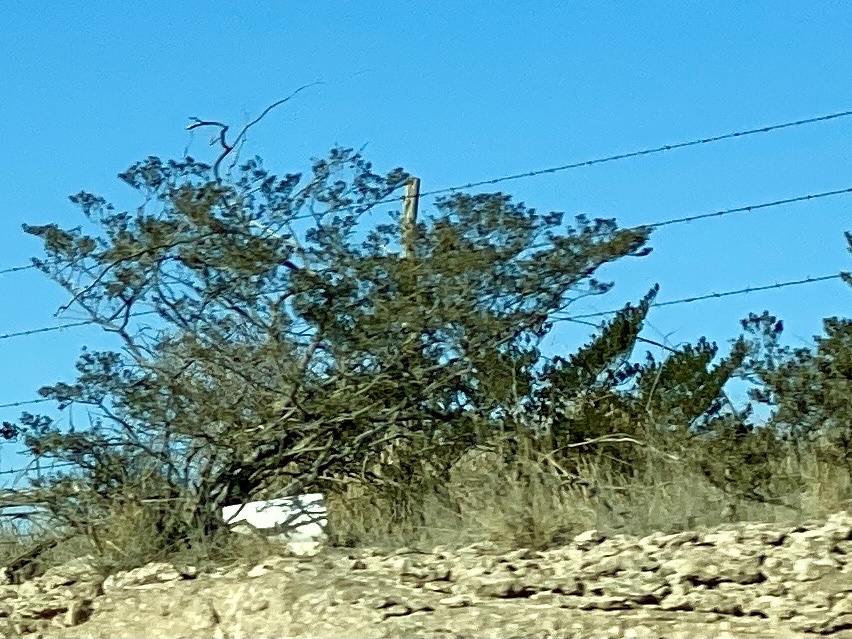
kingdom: Plantae
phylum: Tracheophyta
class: Magnoliopsida
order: Zygophyllales
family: Zygophyllaceae
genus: Larrea
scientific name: Larrea tridentata
